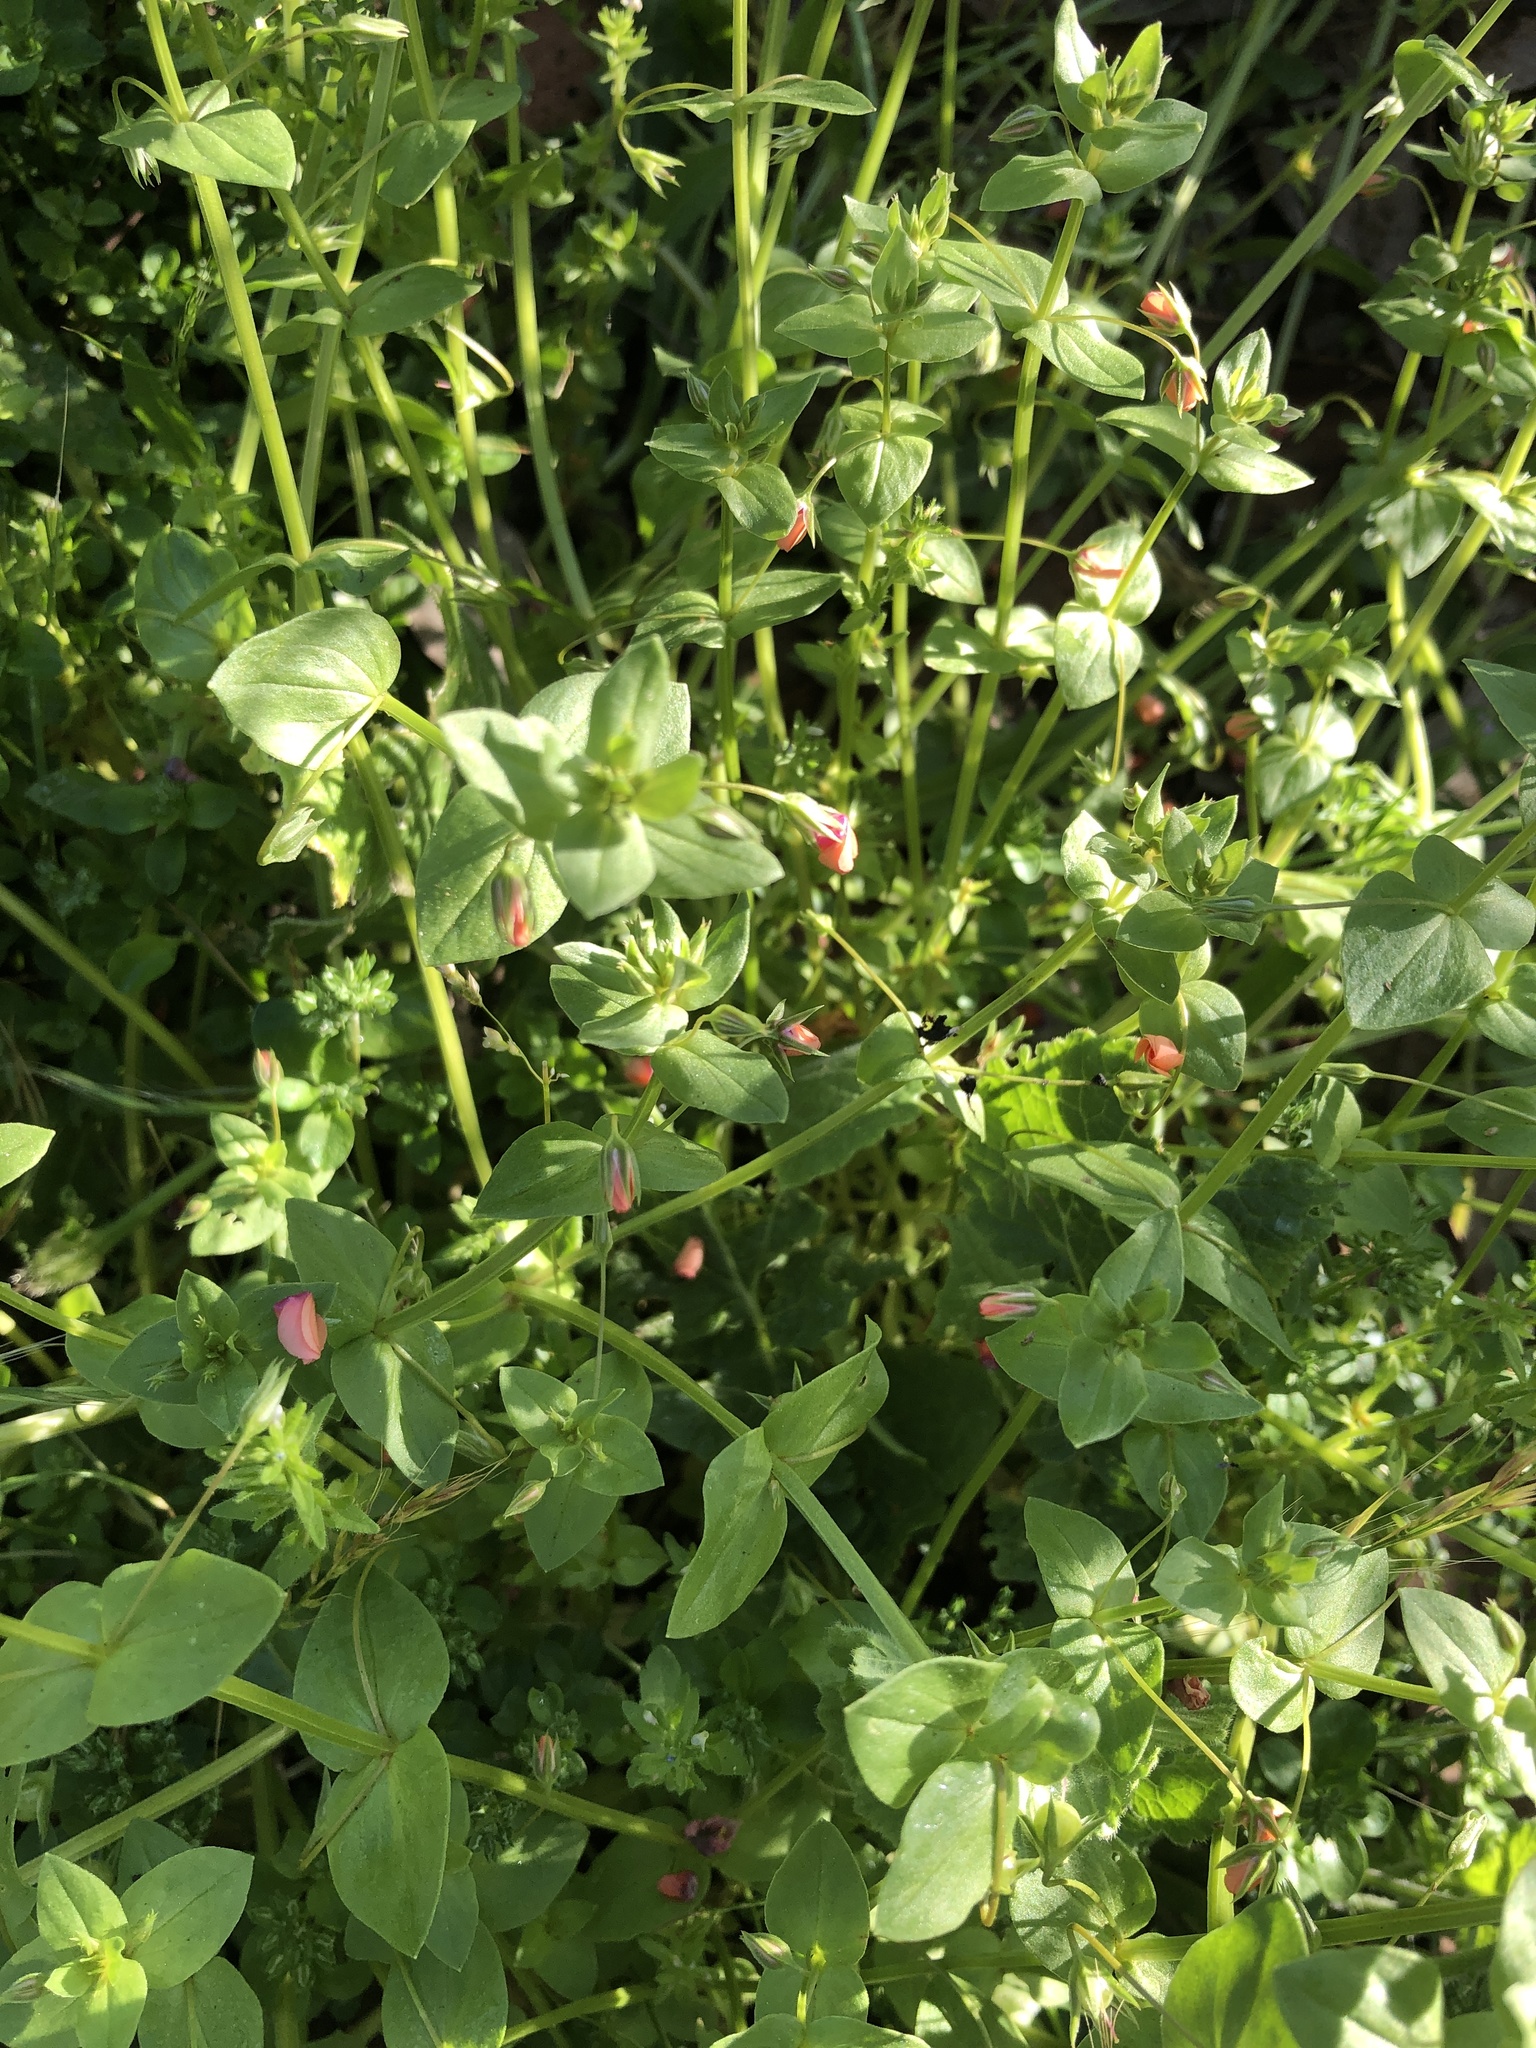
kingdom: Plantae
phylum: Tracheophyta
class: Magnoliopsida
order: Ericales
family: Primulaceae
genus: Lysimachia
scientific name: Lysimachia arvensis
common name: Scarlet pimpernel
